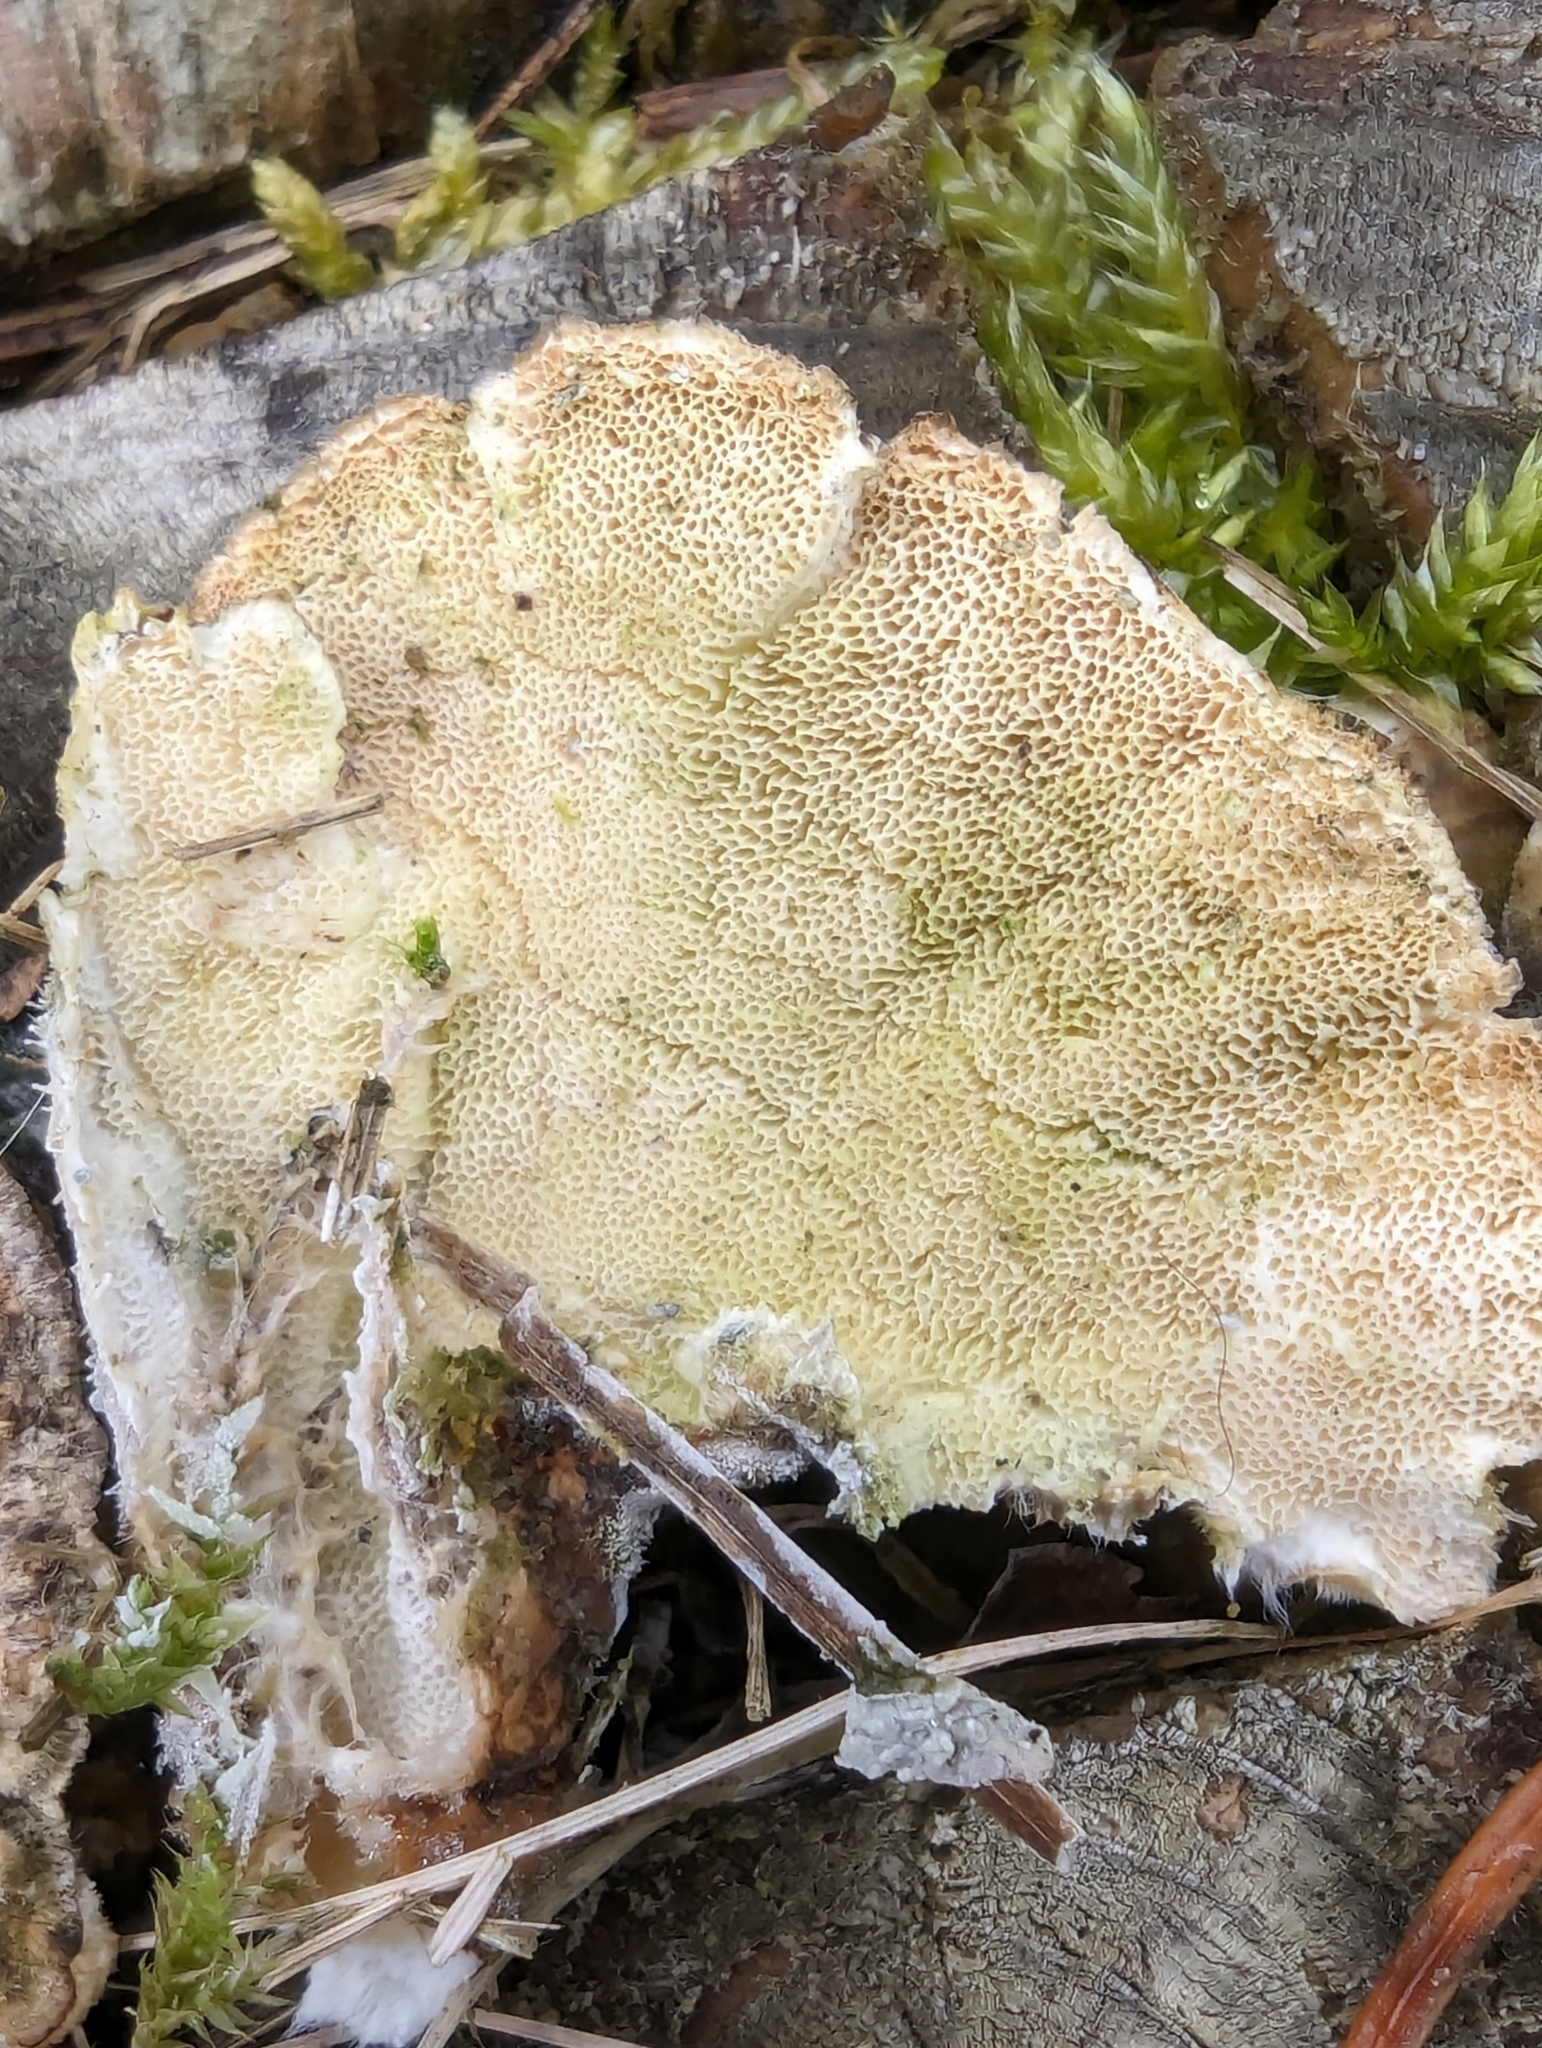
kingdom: Fungi
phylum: Basidiomycota
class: Agaricomycetes
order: Polyporales
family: Polyporaceae
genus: Trametes
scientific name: Trametes versicolor
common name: Turkeytail
